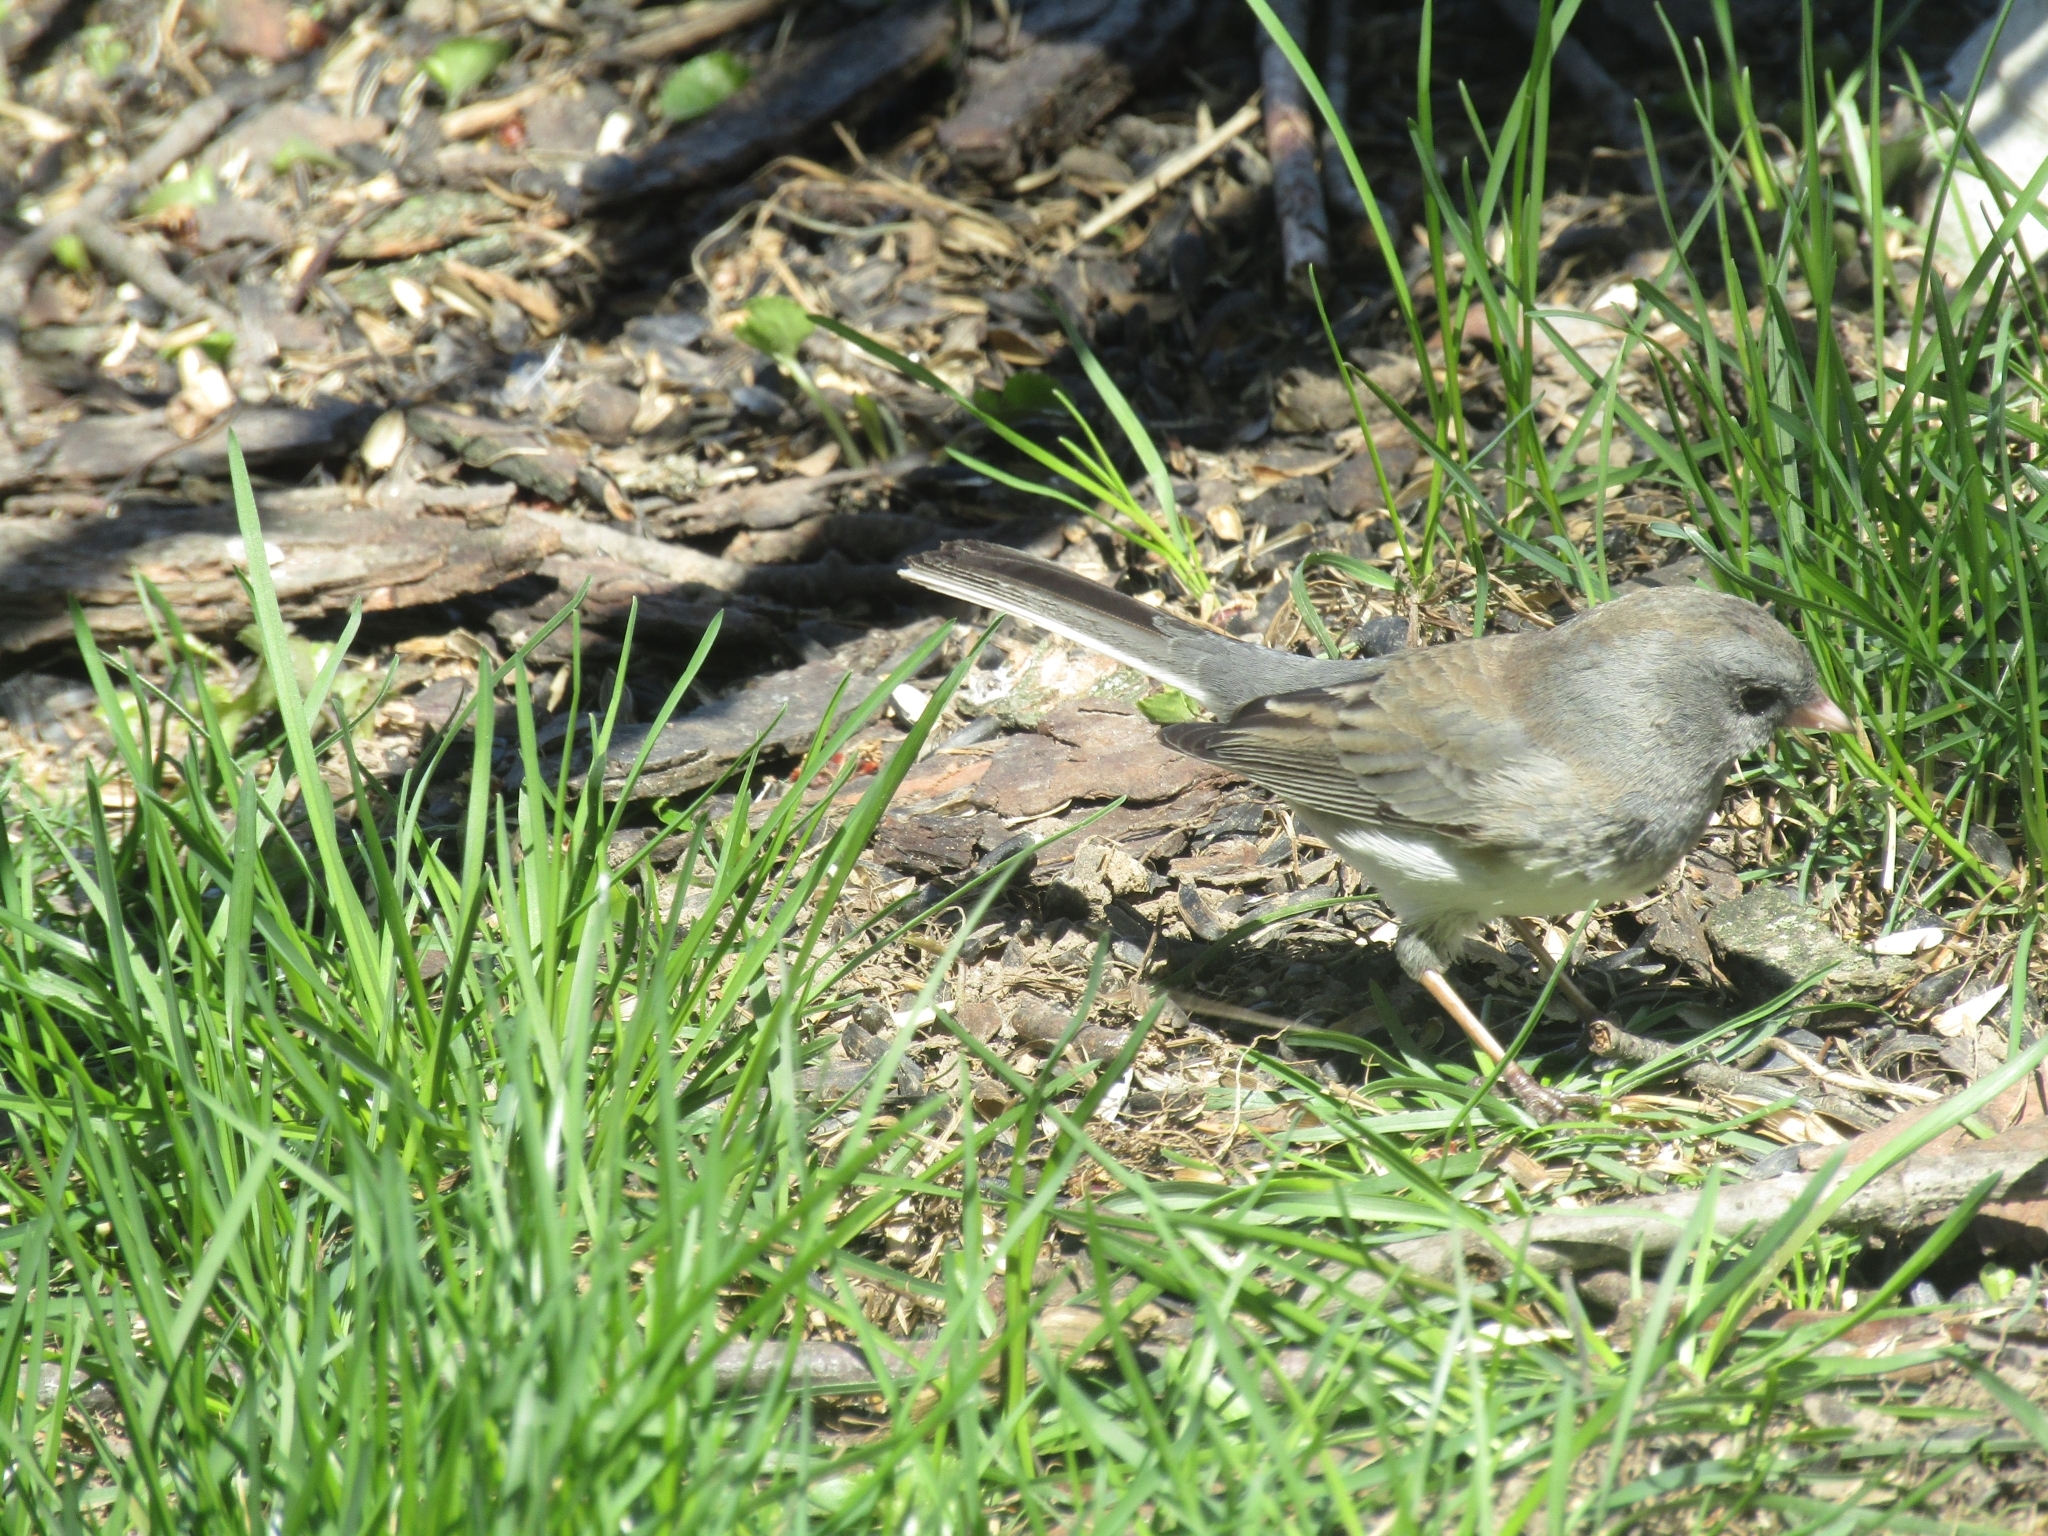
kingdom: Animalia
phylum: Chordata
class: Aves
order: Passeriformes
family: Passerellidae
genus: Junco
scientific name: Junco hyemalis
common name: Dark-eyed junco
